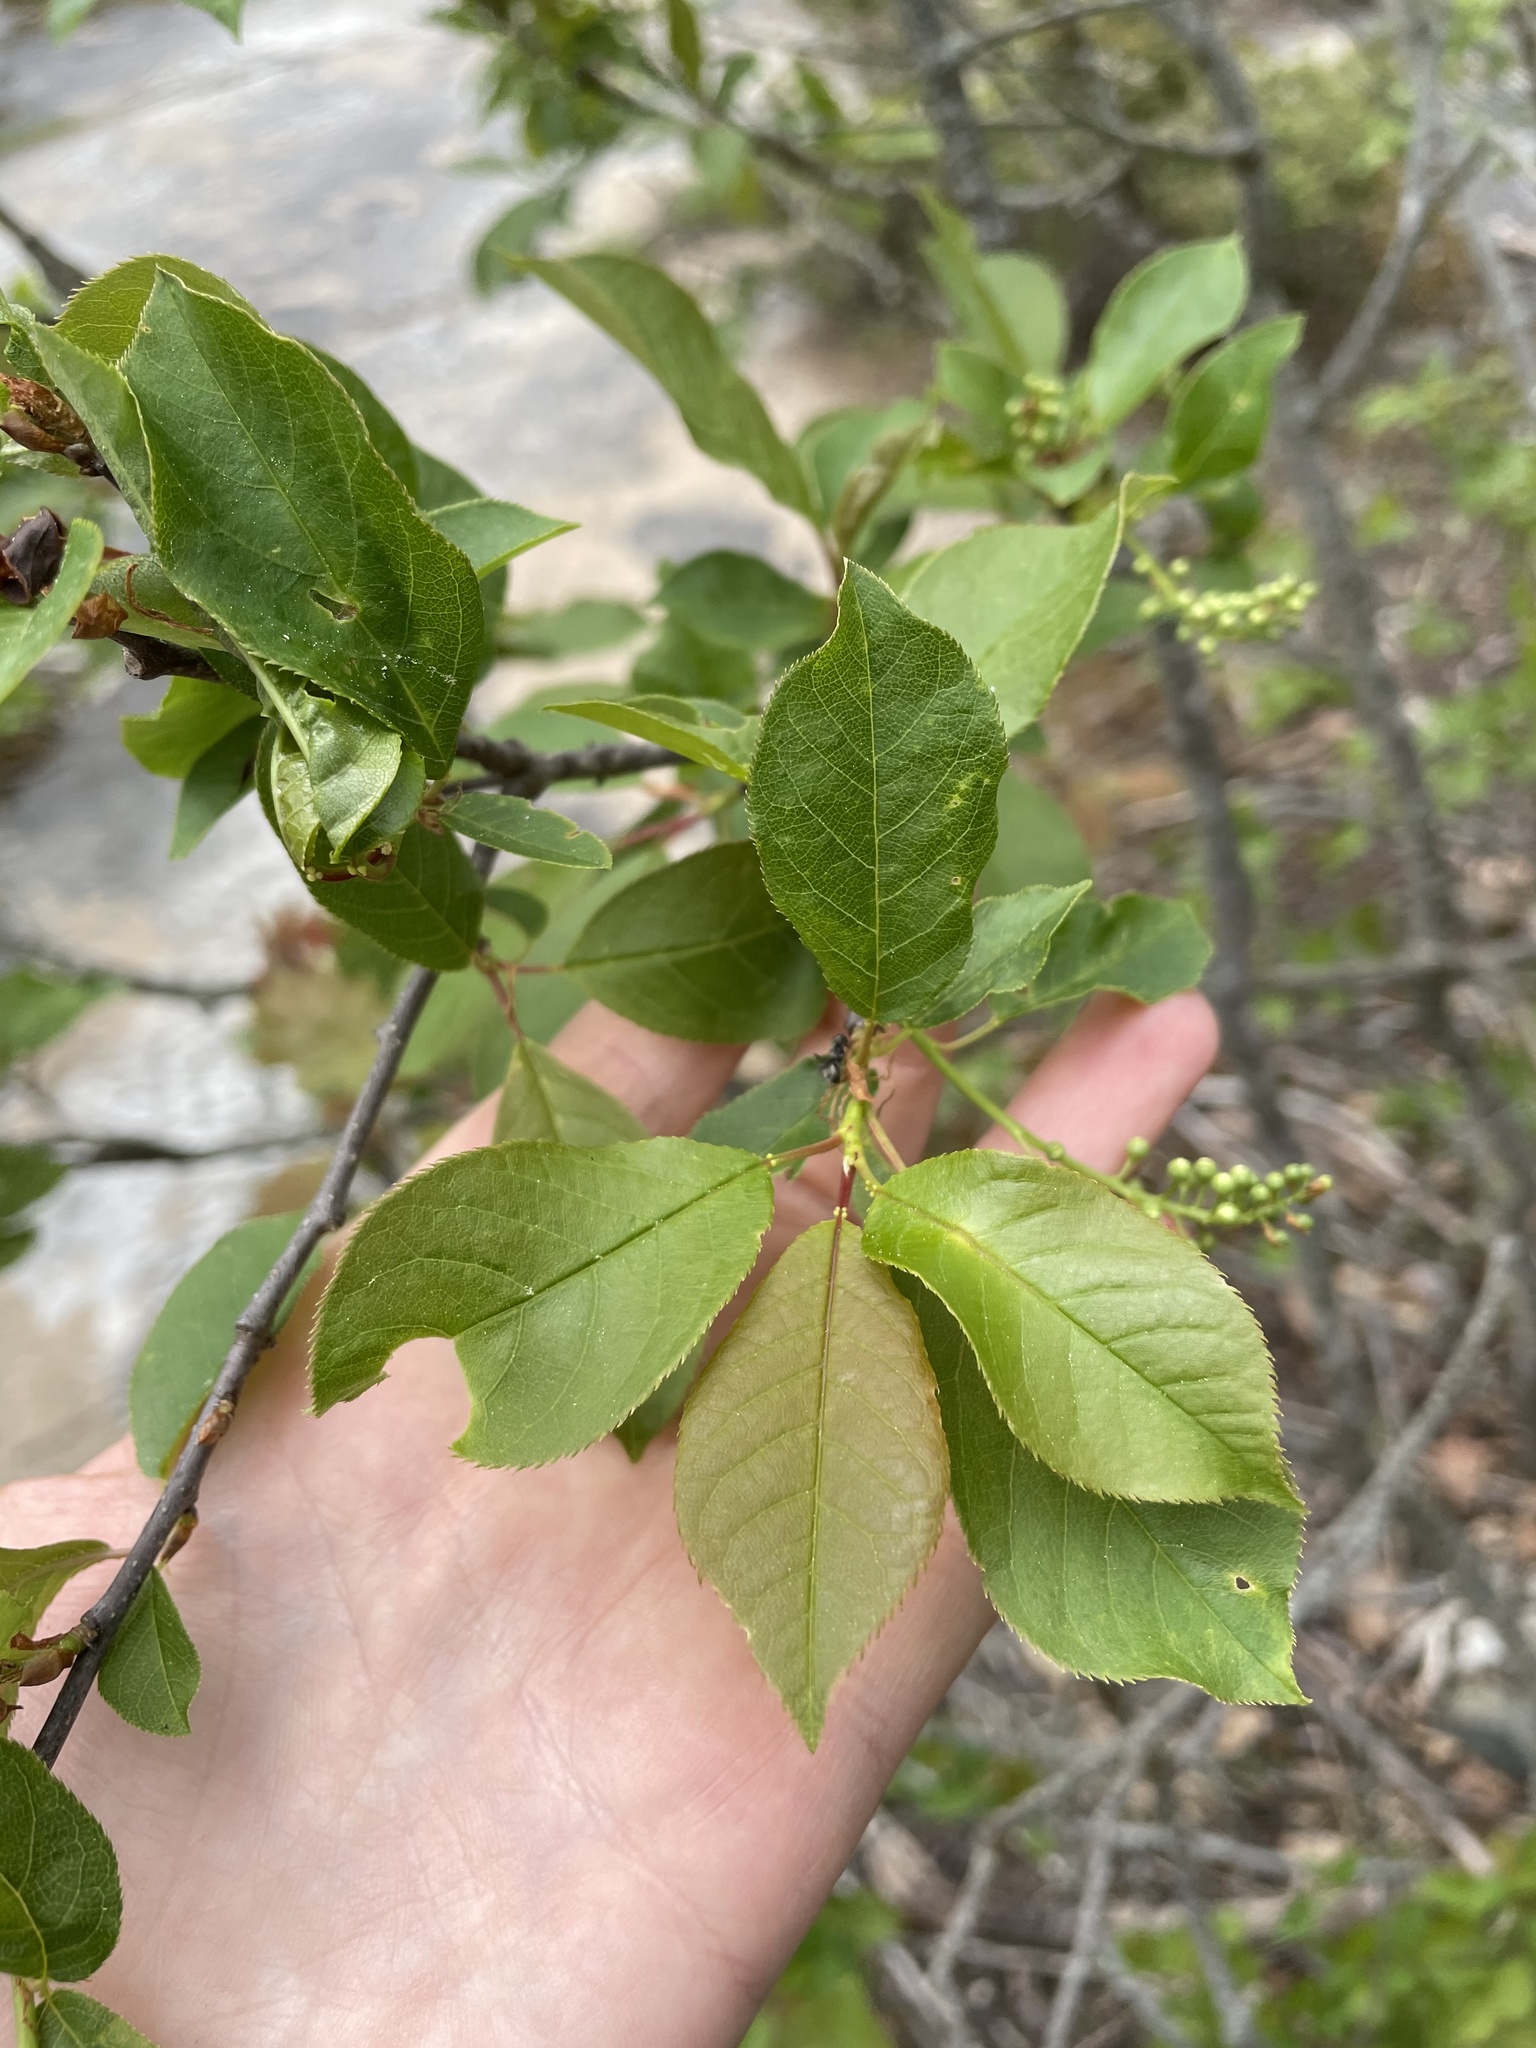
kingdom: Plantae
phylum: Tracheophyta
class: Magnoliopsida
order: Rosales
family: Rosaceae
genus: Prunus
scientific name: Prunus virginiana
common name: Chokecherry
